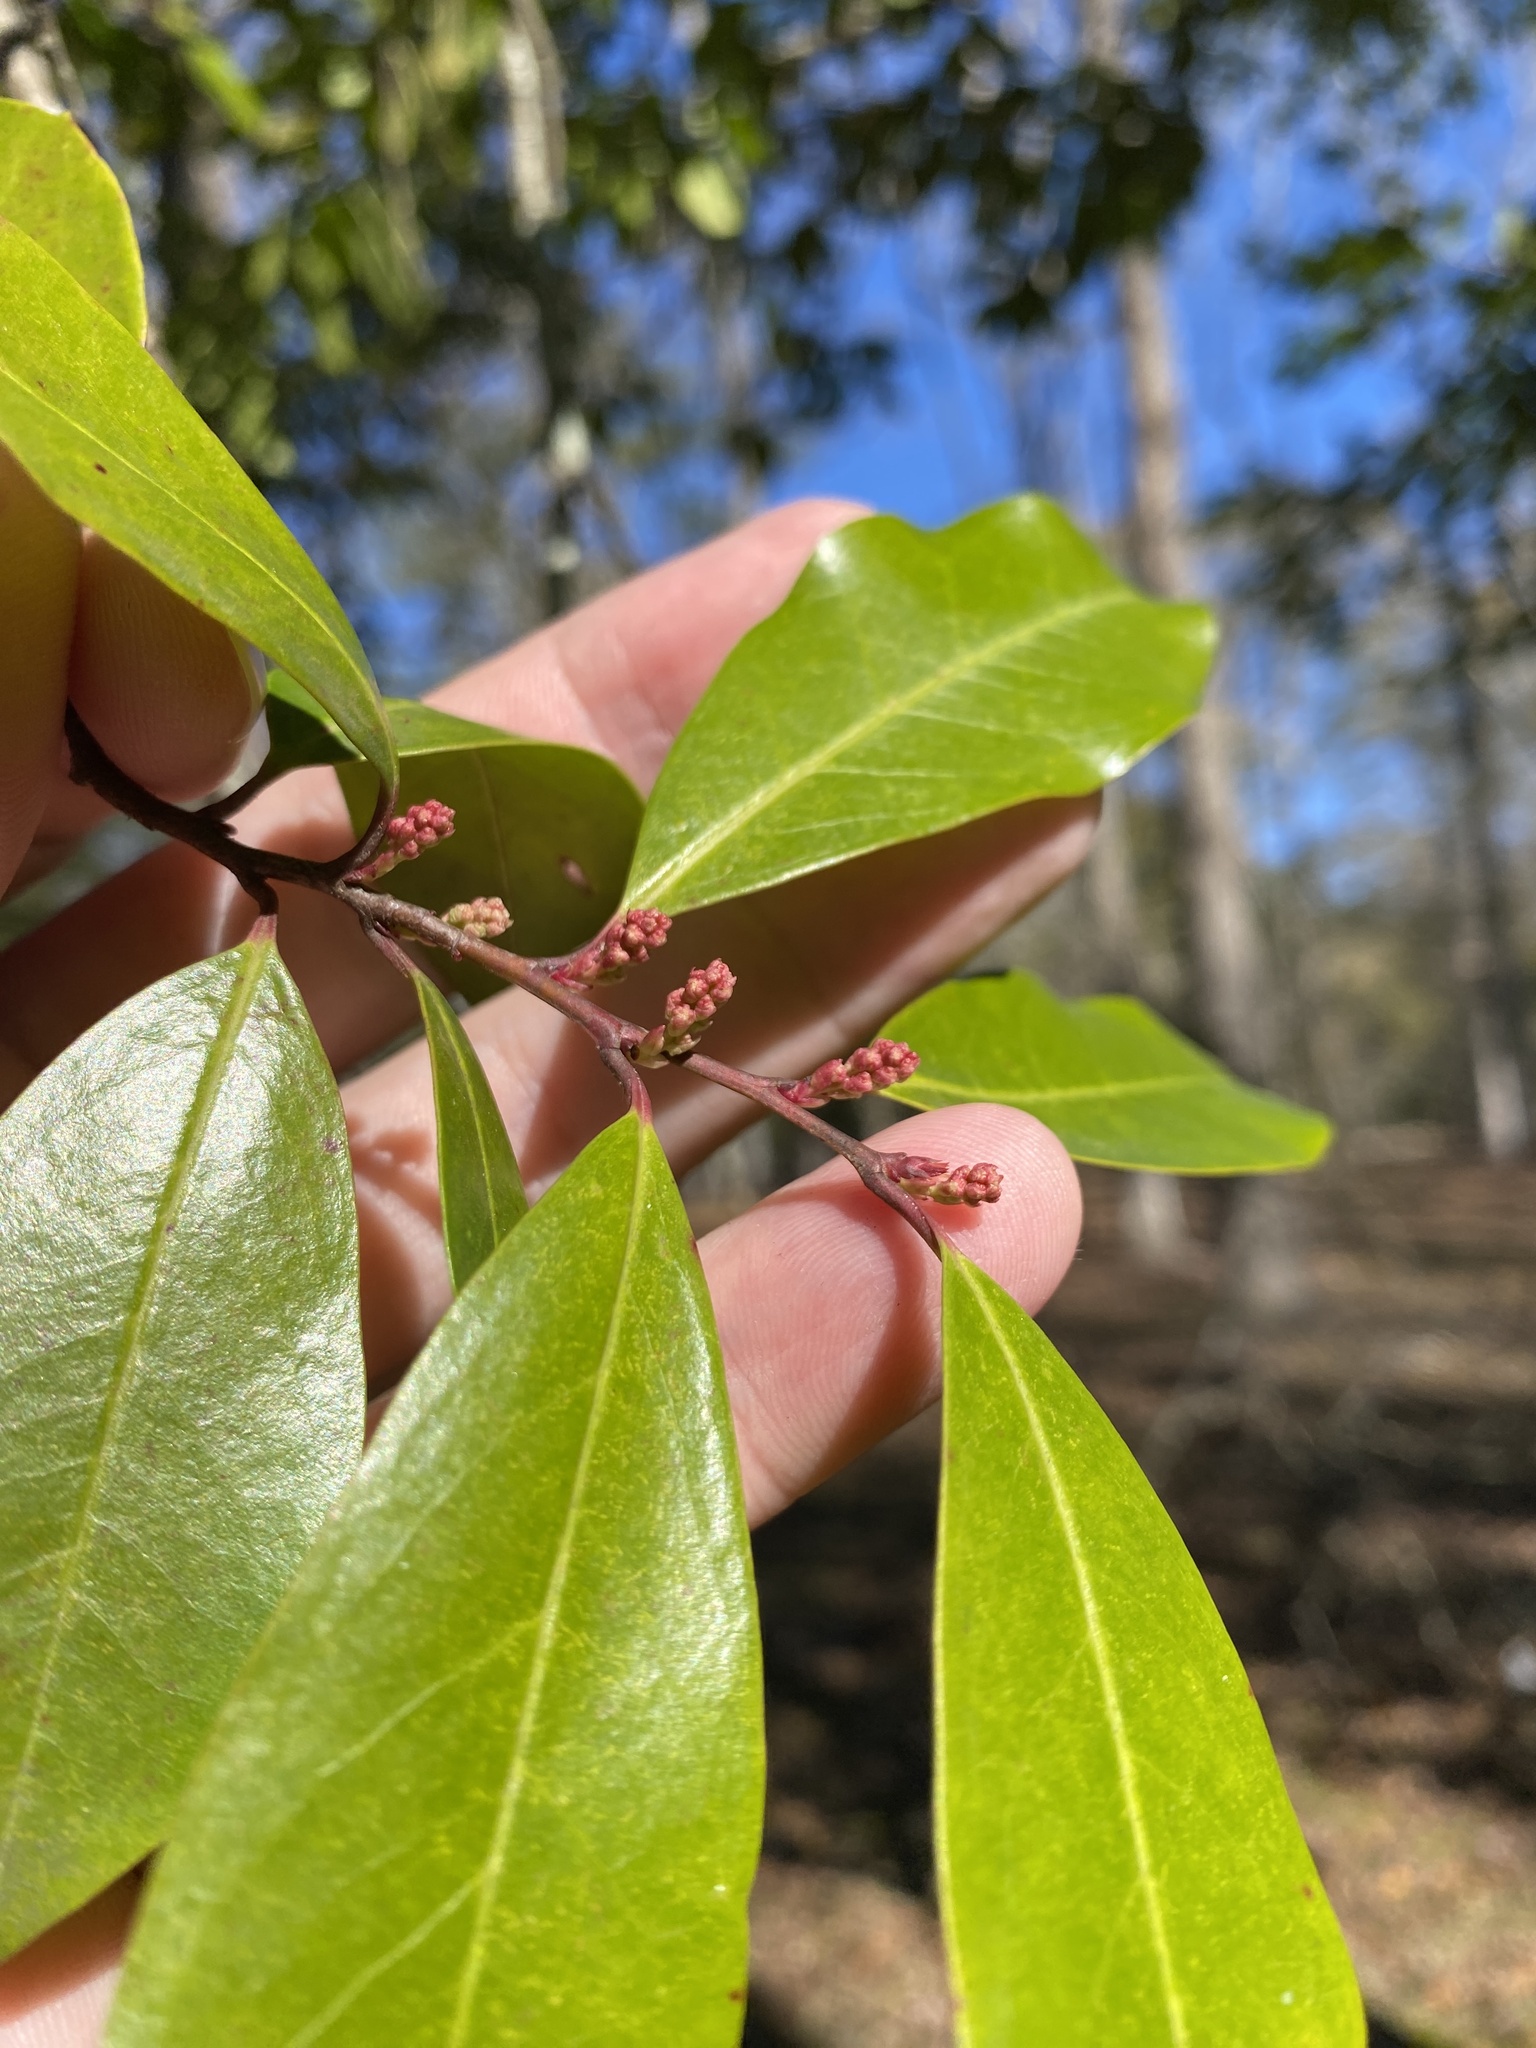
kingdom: Plantae
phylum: Tracheophyta
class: Magnoliopsida
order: Rosales
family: Rosaceae
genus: Prunus
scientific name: Prunus caroliniana
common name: Carolina laurel cherry
